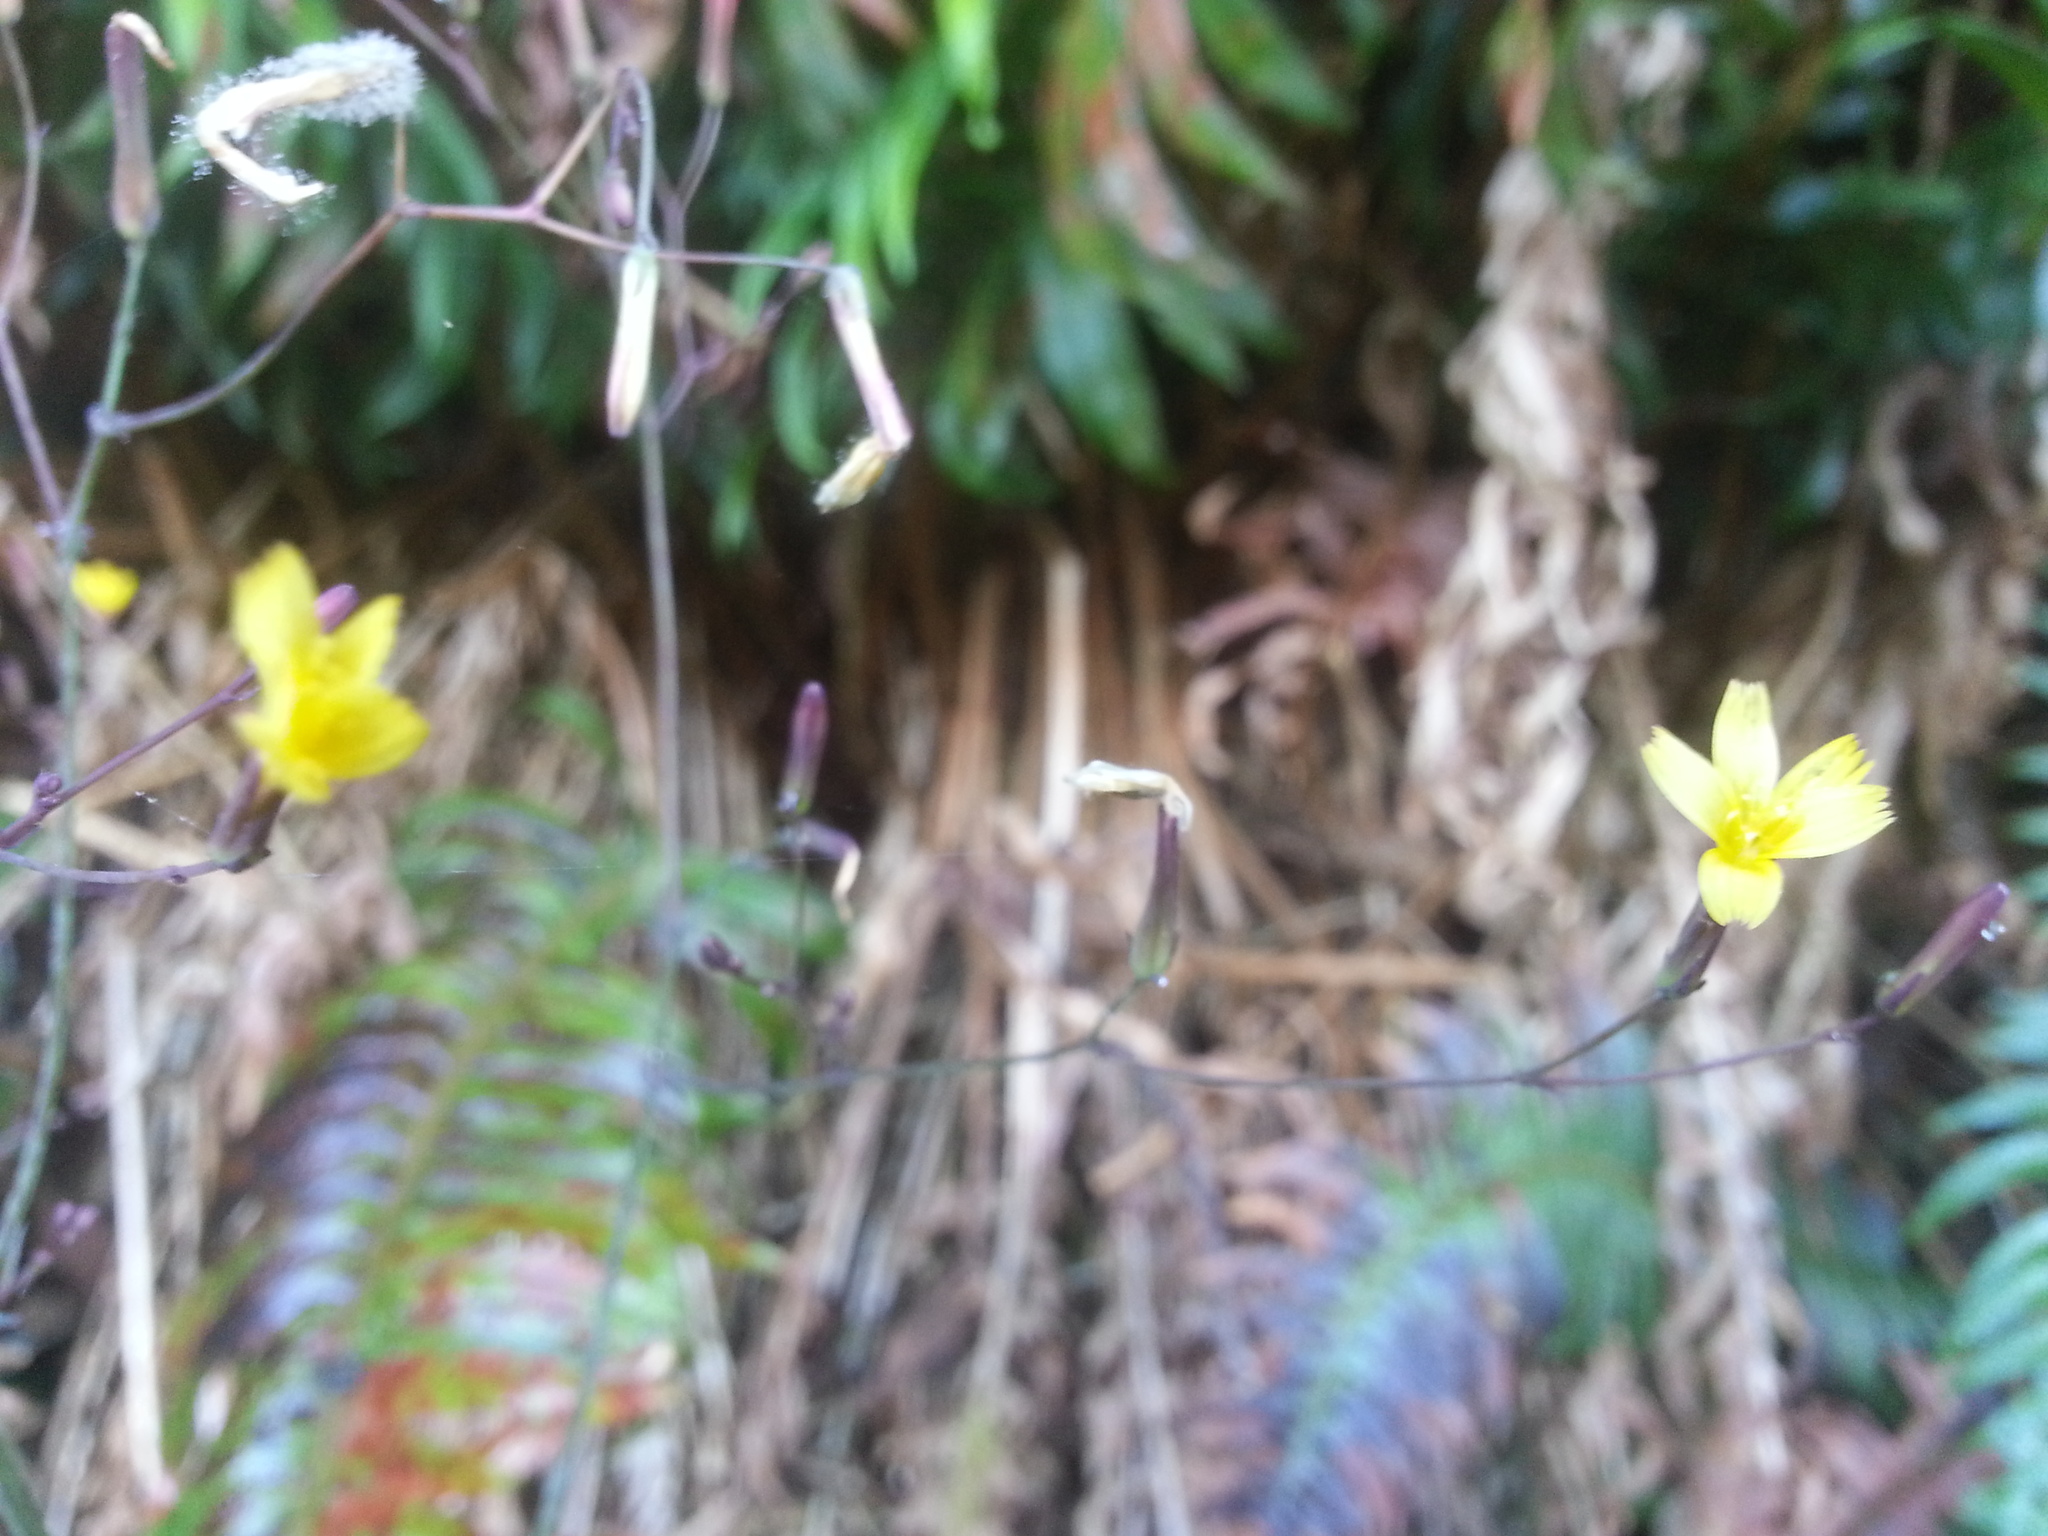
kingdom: Plantae
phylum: Tracheophyta
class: Magnoliopsida
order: Asterales
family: Asteraceae
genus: Mycelis
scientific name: Mycelis muralis
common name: Wall lettuce
